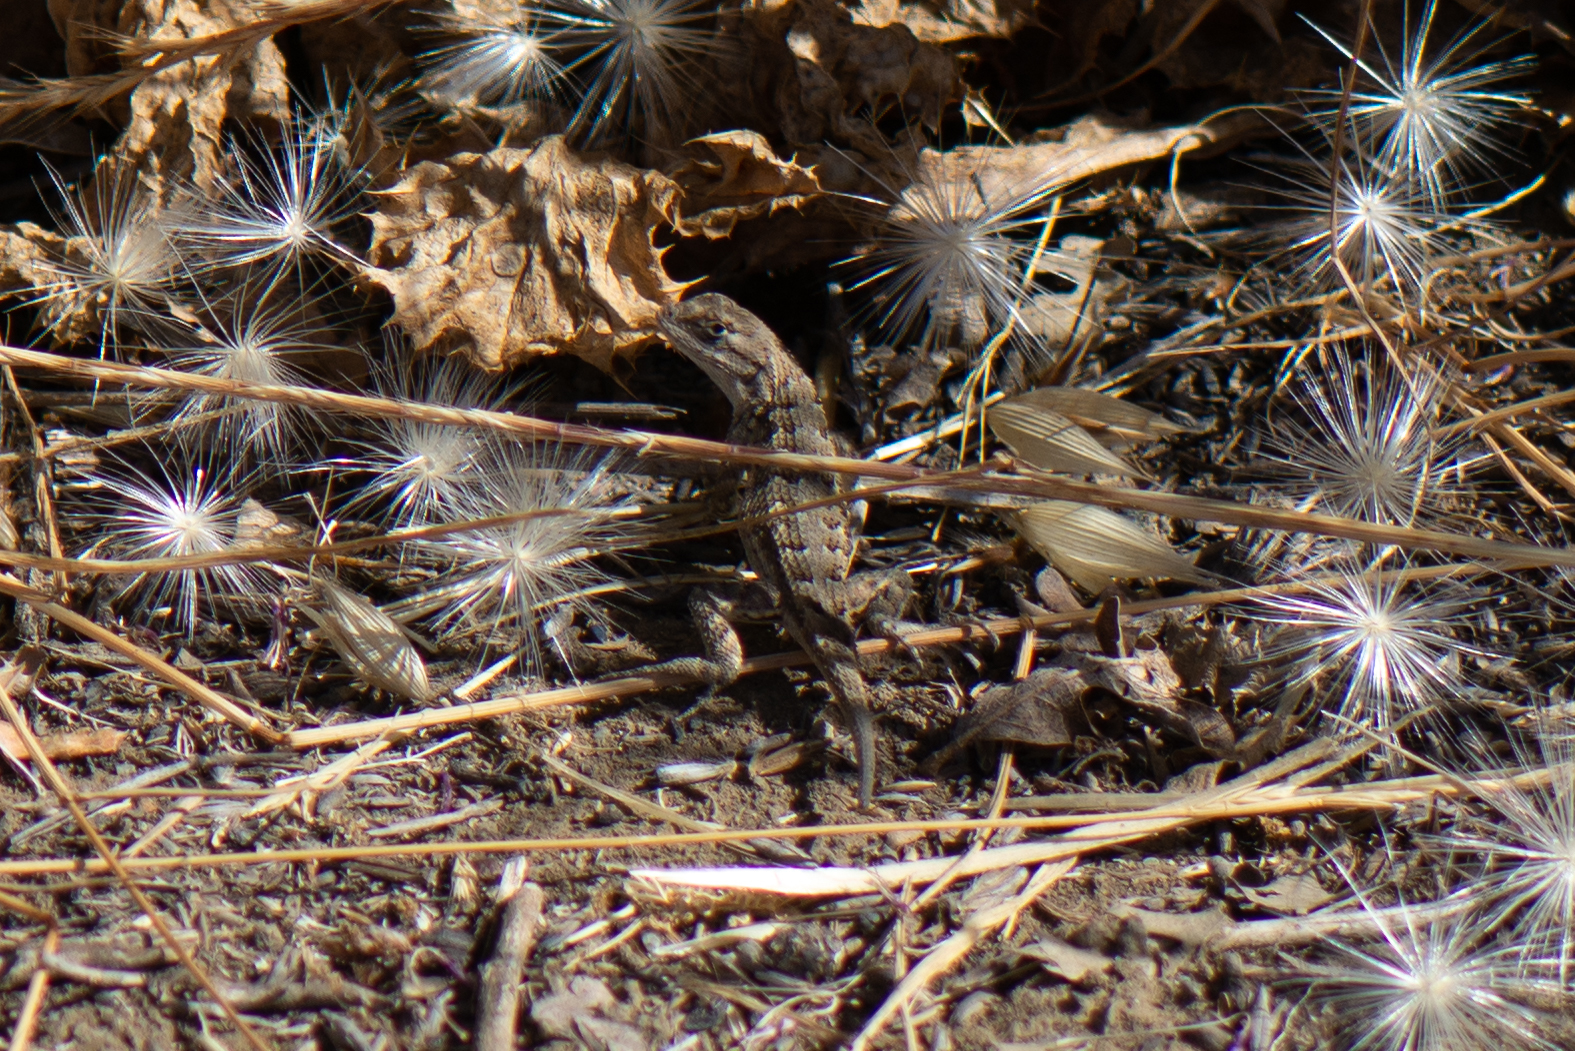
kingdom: Animalia
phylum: Chordata
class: Squamata
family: Phrynosomatidae
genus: Sceloporus
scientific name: Sceloporus occidentalis
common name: Western fence lizard
